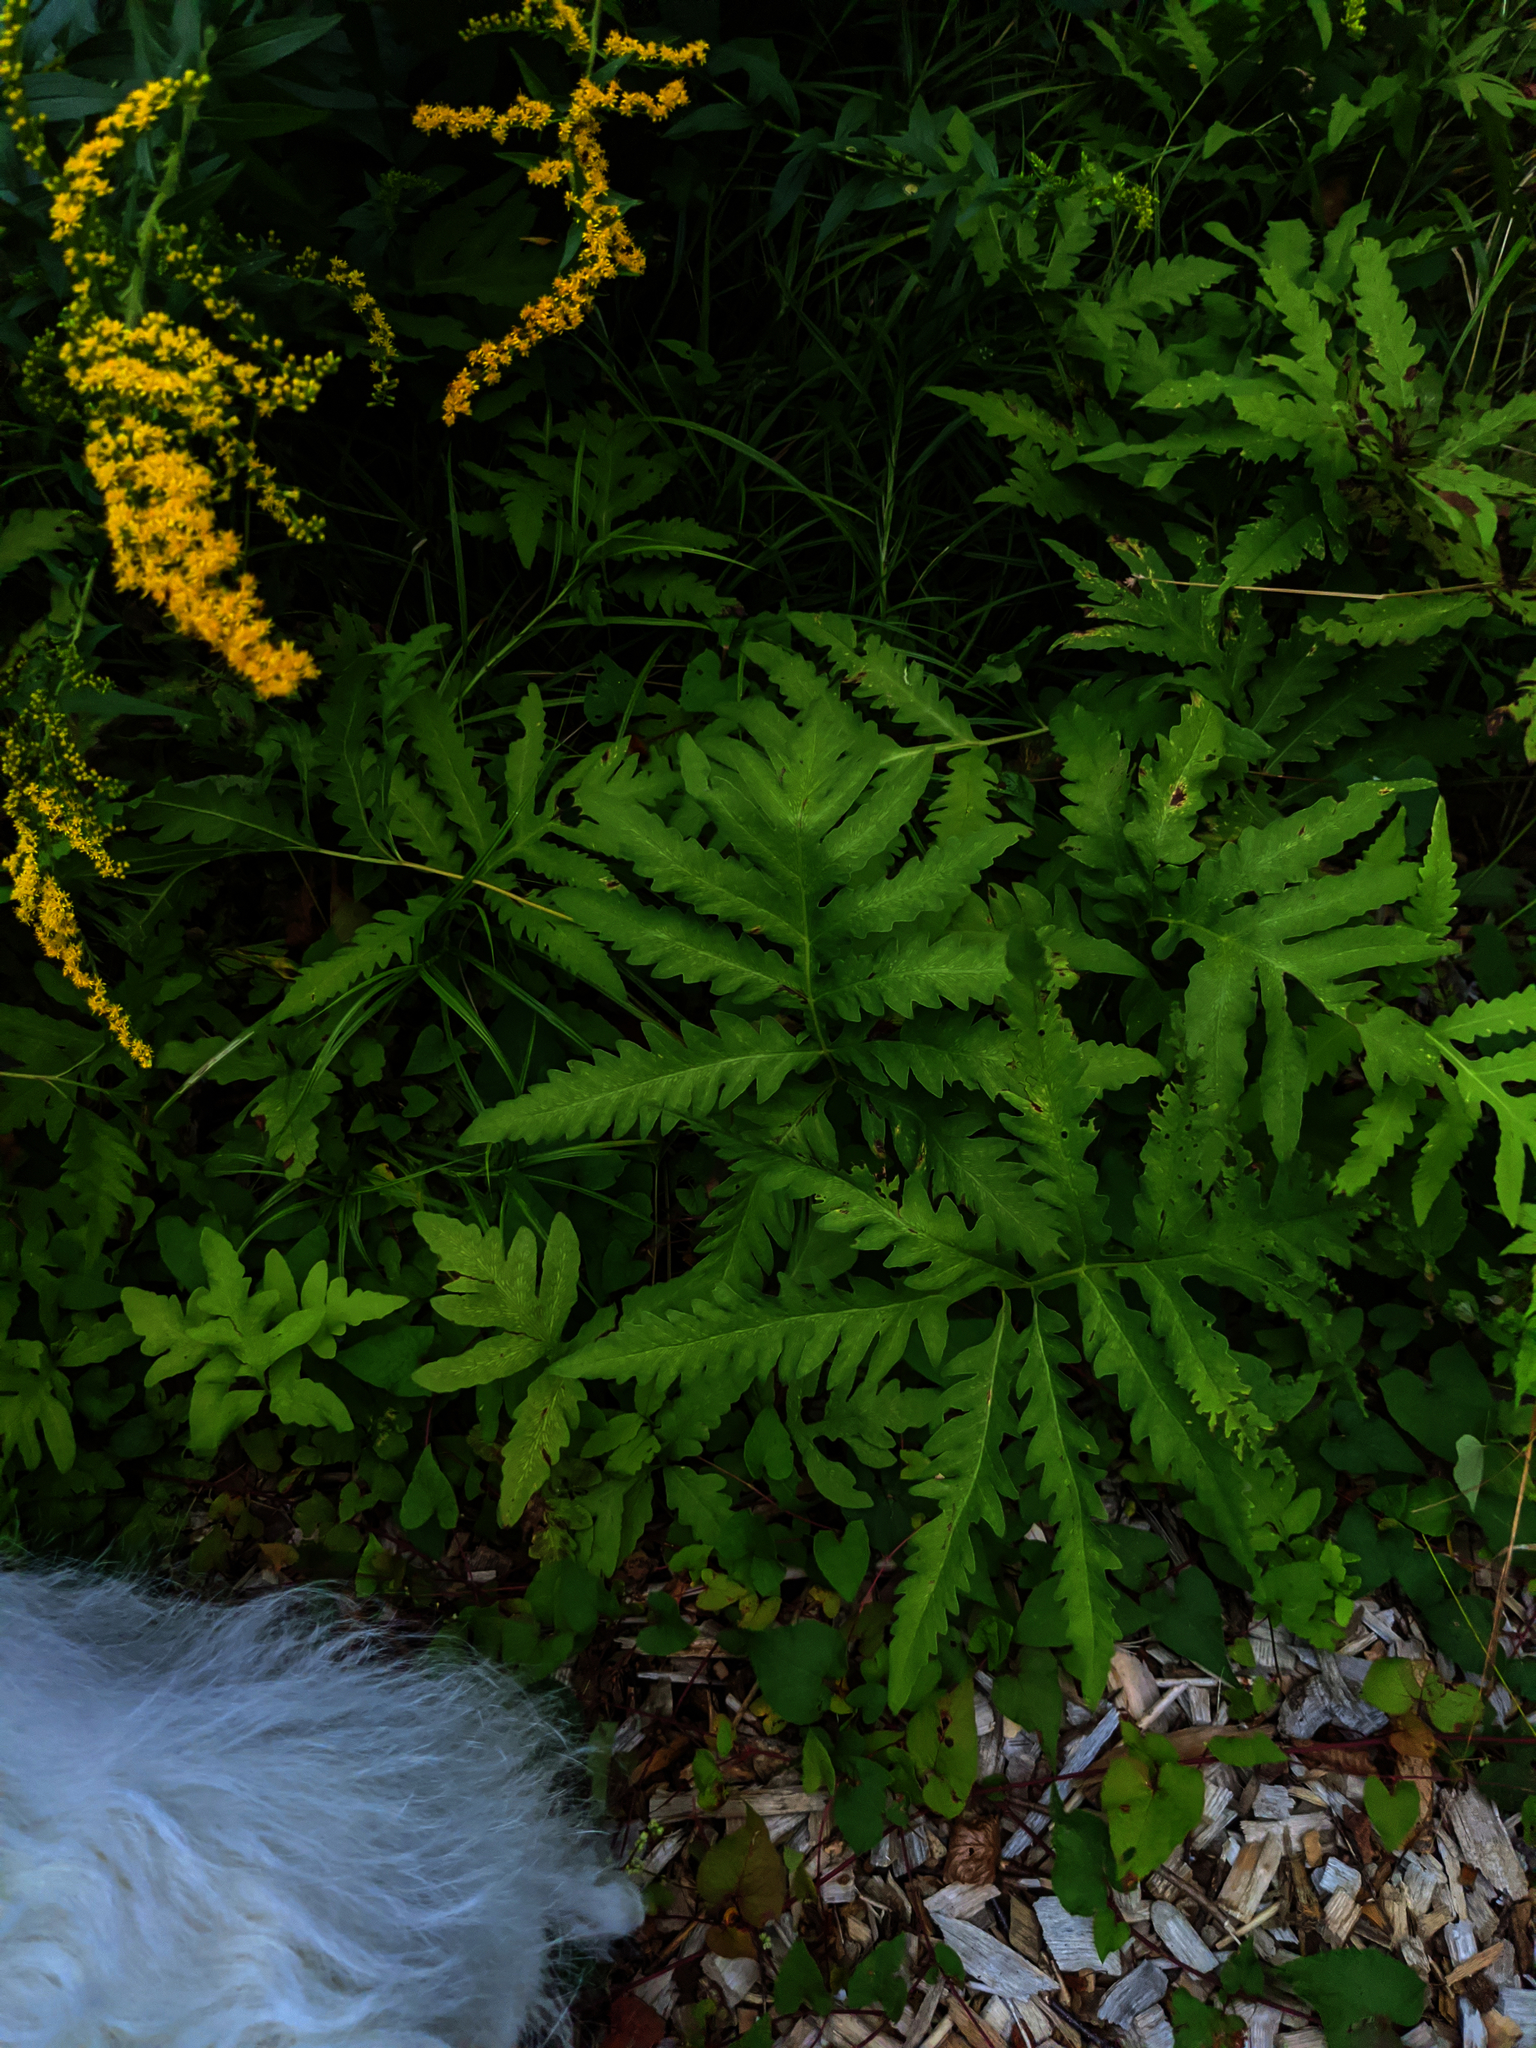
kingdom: Plantae
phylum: Tracheophyta
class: Polypodiopsida
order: Polypodiales
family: Onocleaceae
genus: Onoclea
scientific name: Onoclea sensibilis
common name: Sensitive fern
